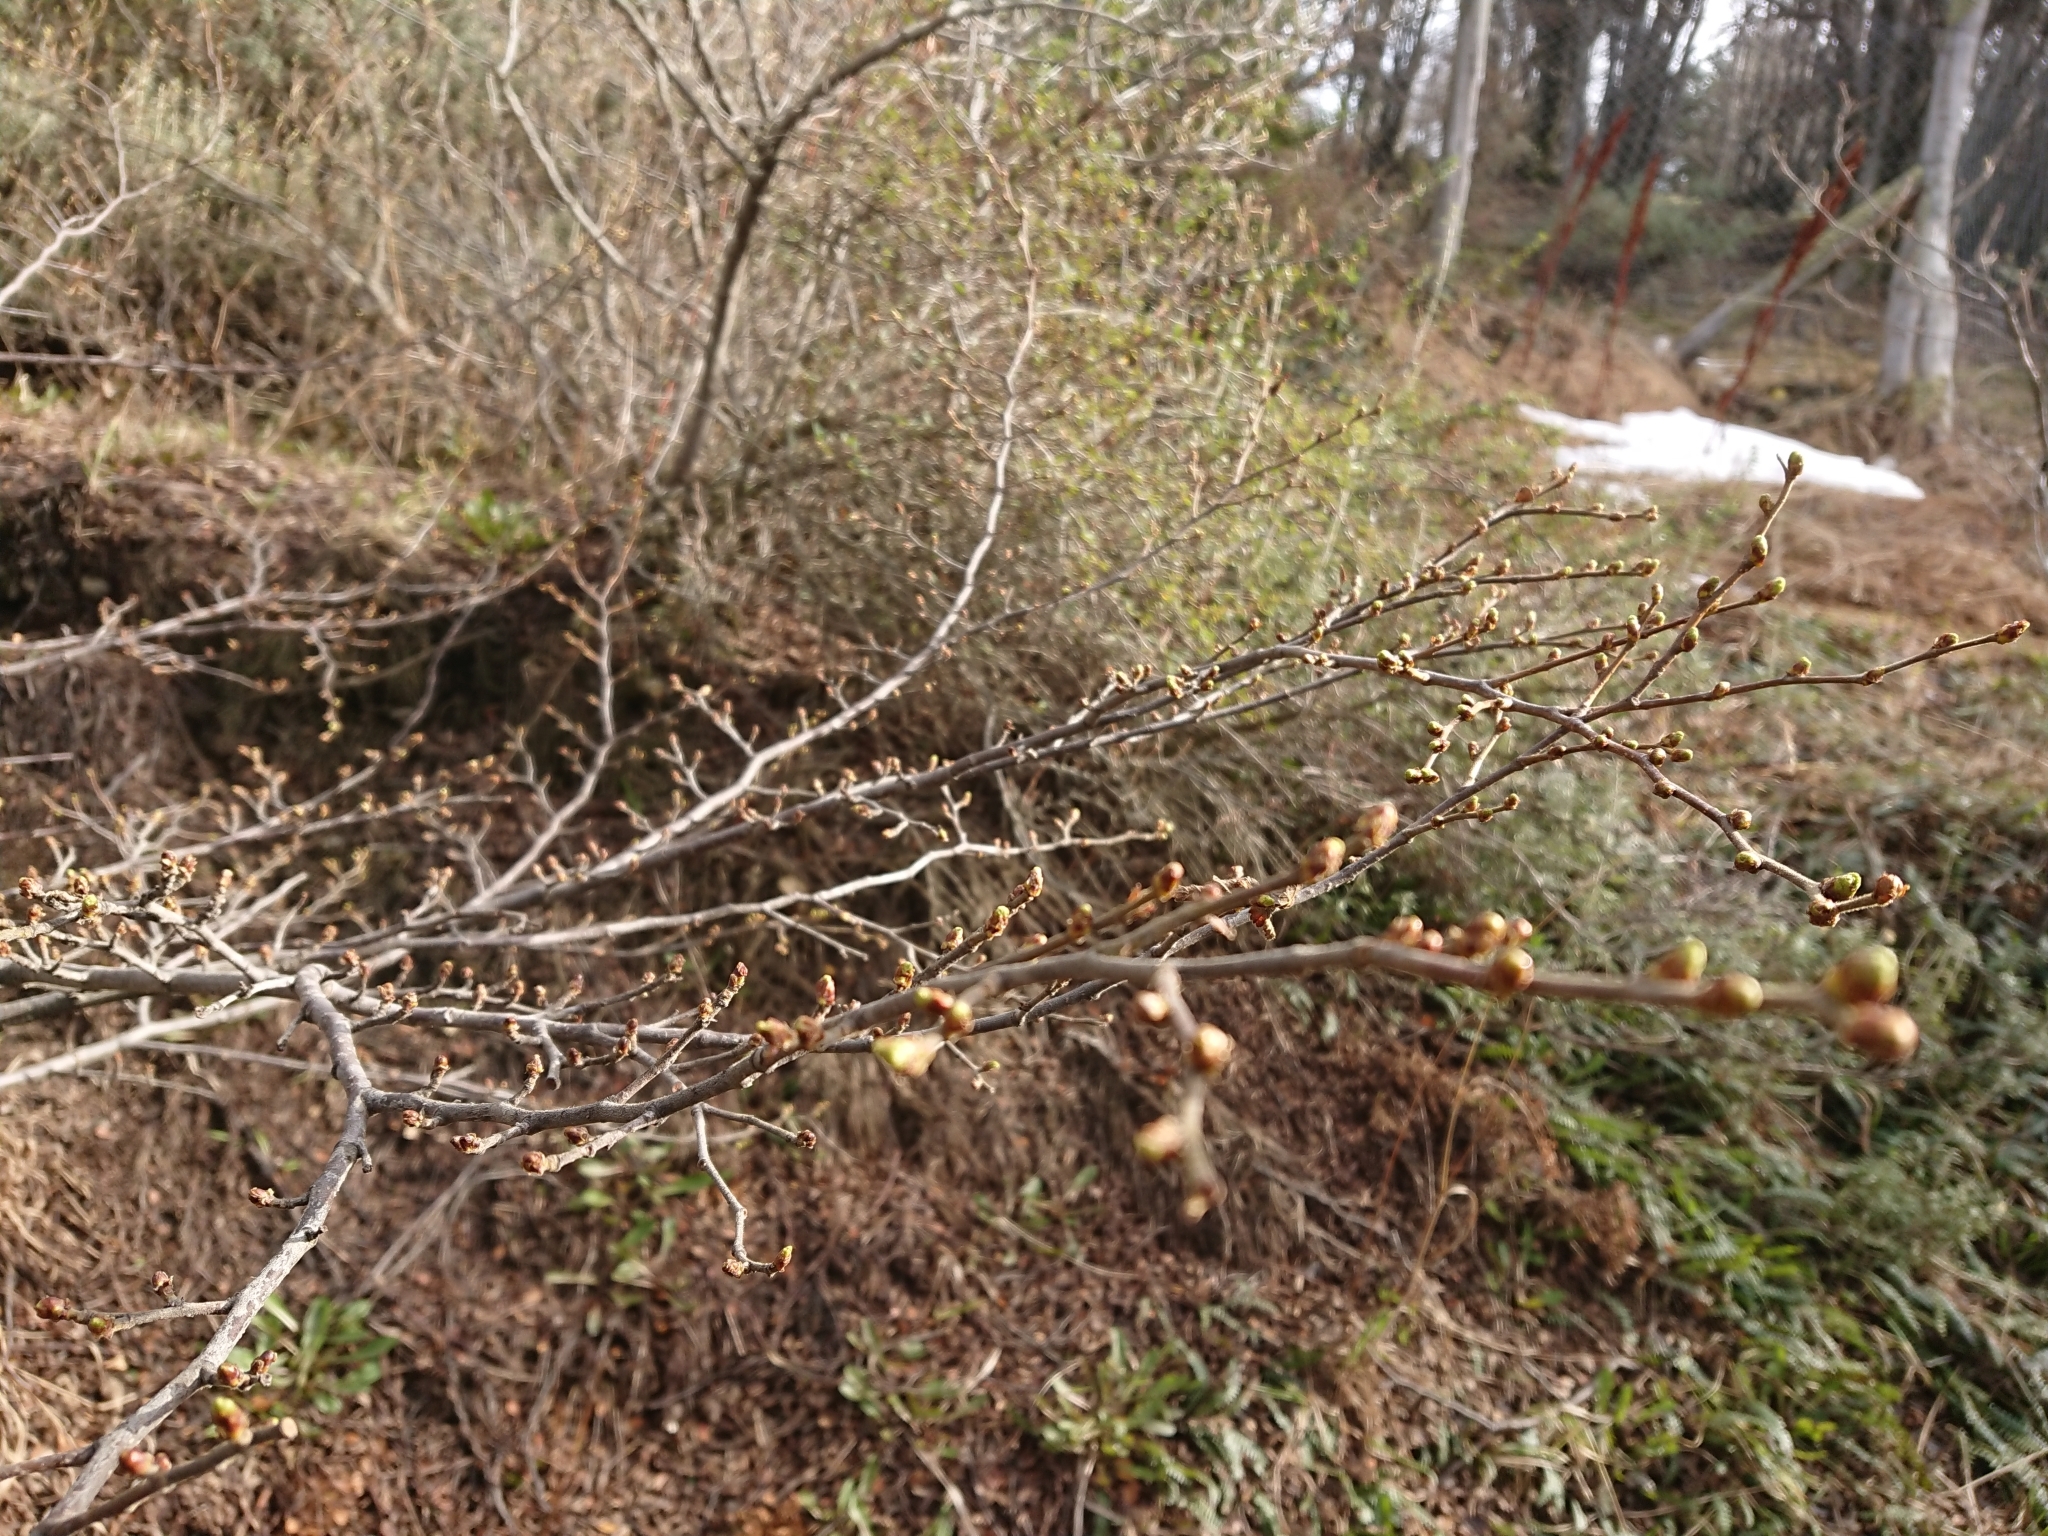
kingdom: Plantae
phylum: Tracheophyta
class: Magnoliopsida
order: Fagales
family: Nothofagaceae
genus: Nothofagus
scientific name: Nothofagus pumilio
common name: Lenga beech
